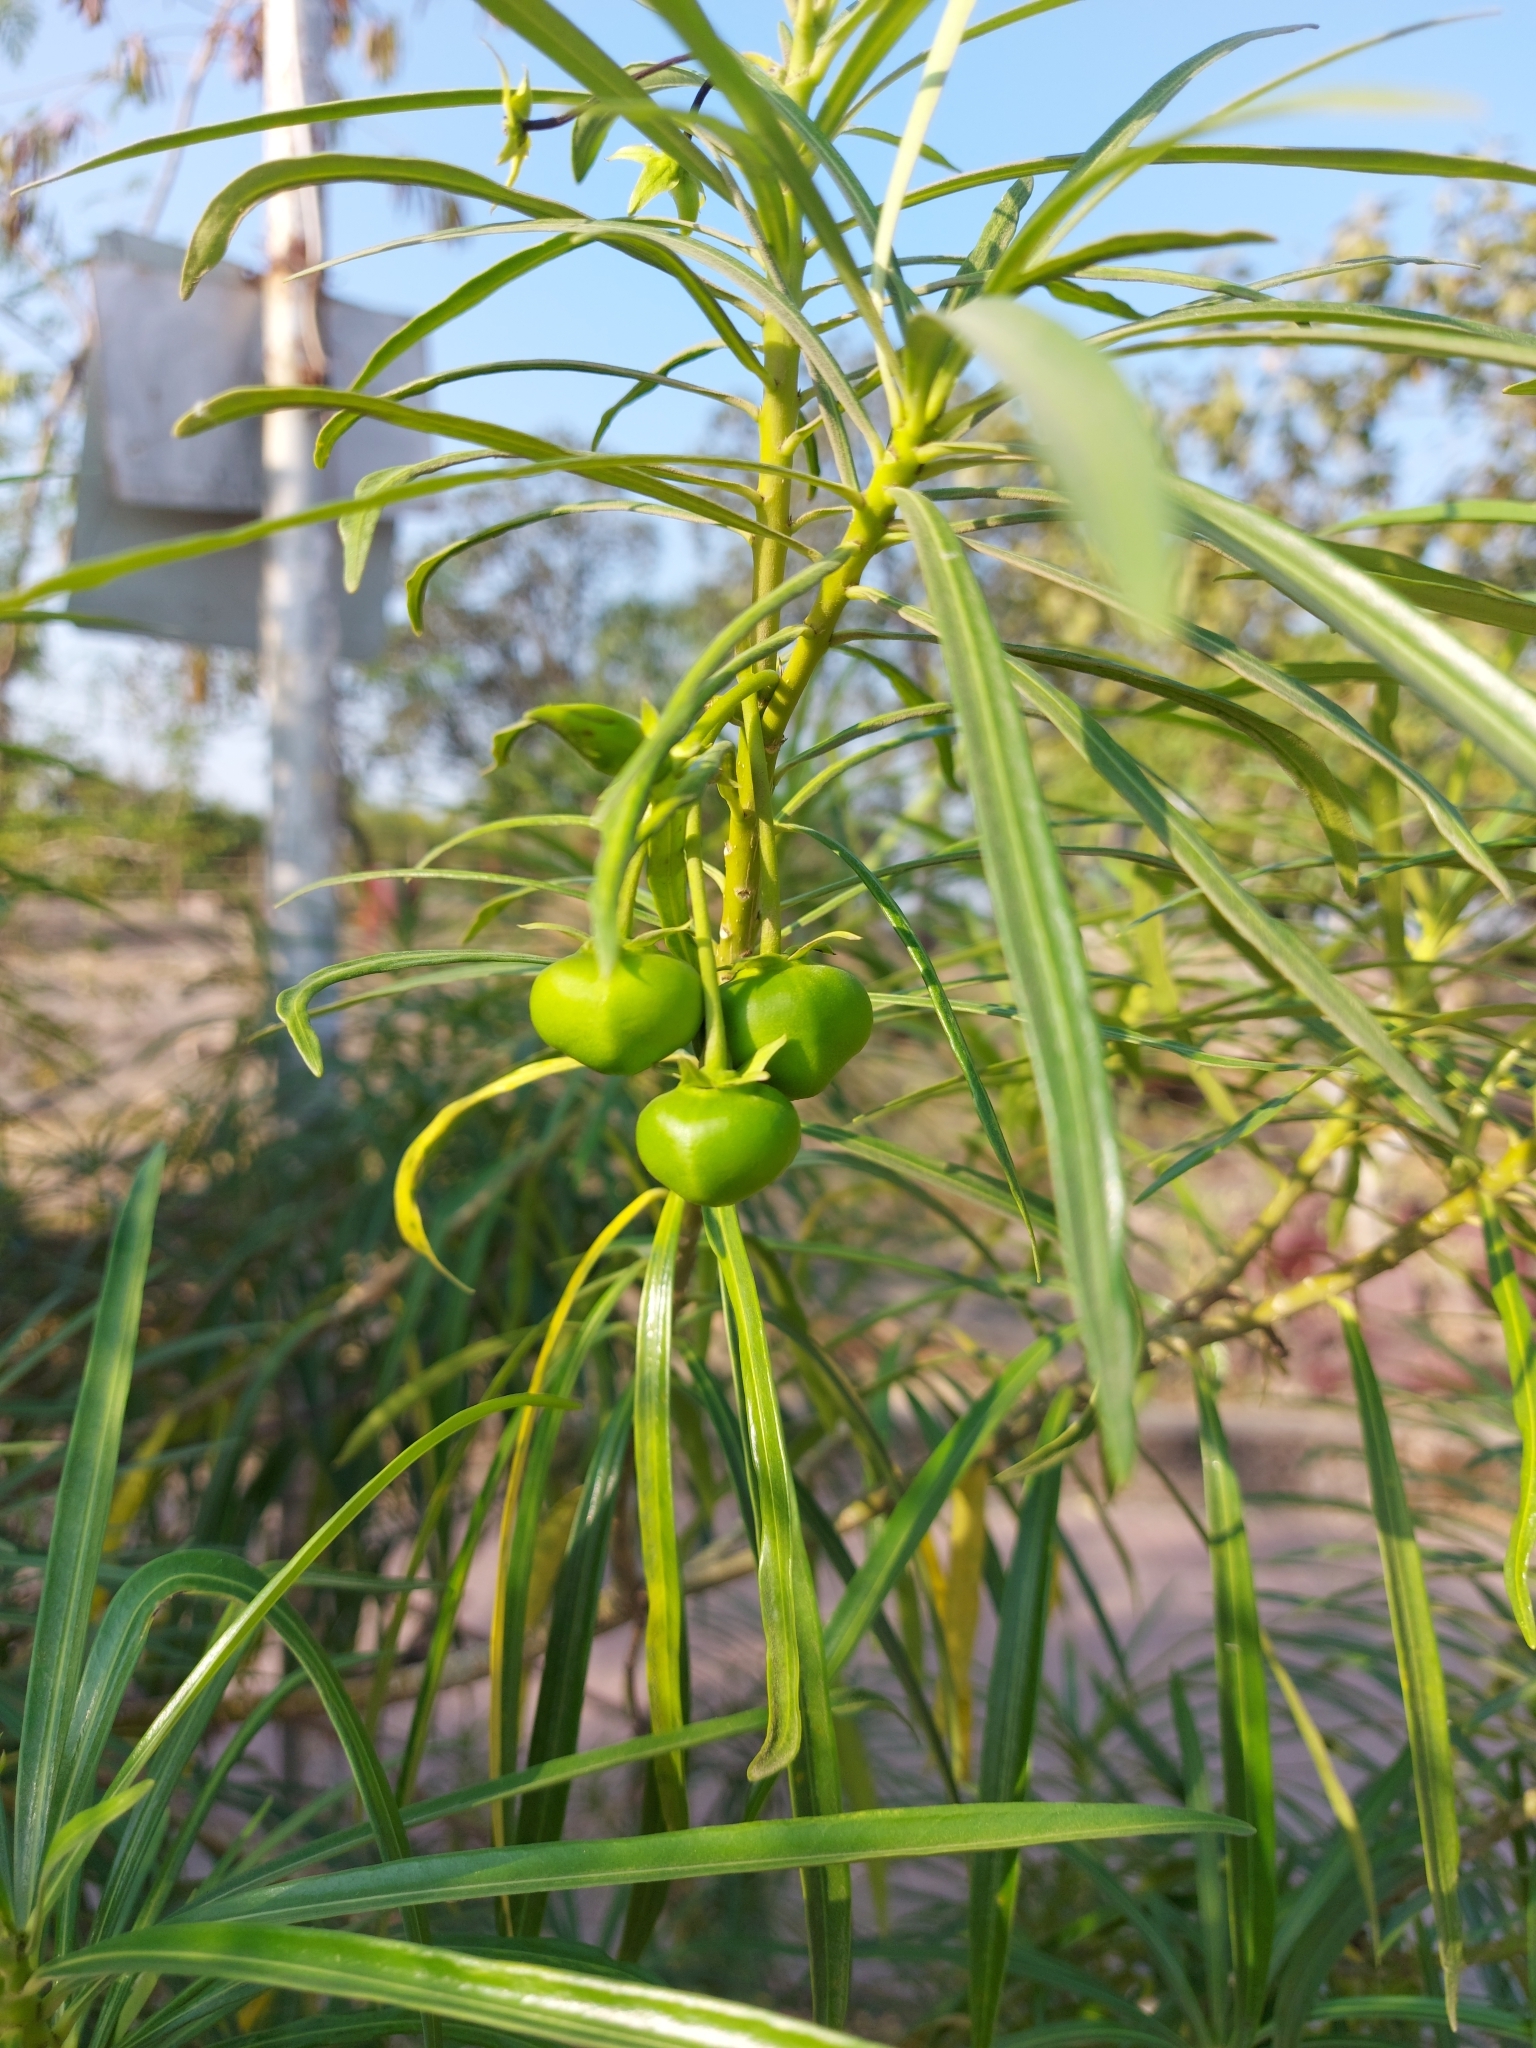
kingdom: Plantae
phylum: Tracheophyta
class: Magnoliopsida
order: Gentianales
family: Apocynaceae
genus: Cascabela
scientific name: Cascabela thevetia
